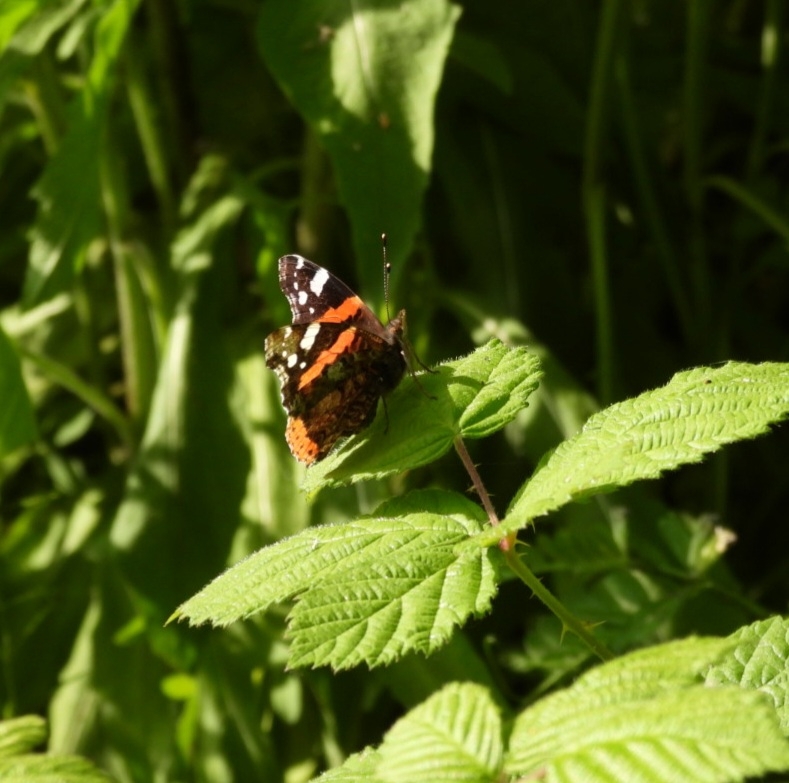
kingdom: Animalia
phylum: Arthropoda
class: Insecta
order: Lepidoptera
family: Nymphalidae
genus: Vanessa
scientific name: Vanessa atalanta
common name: Red admiral
